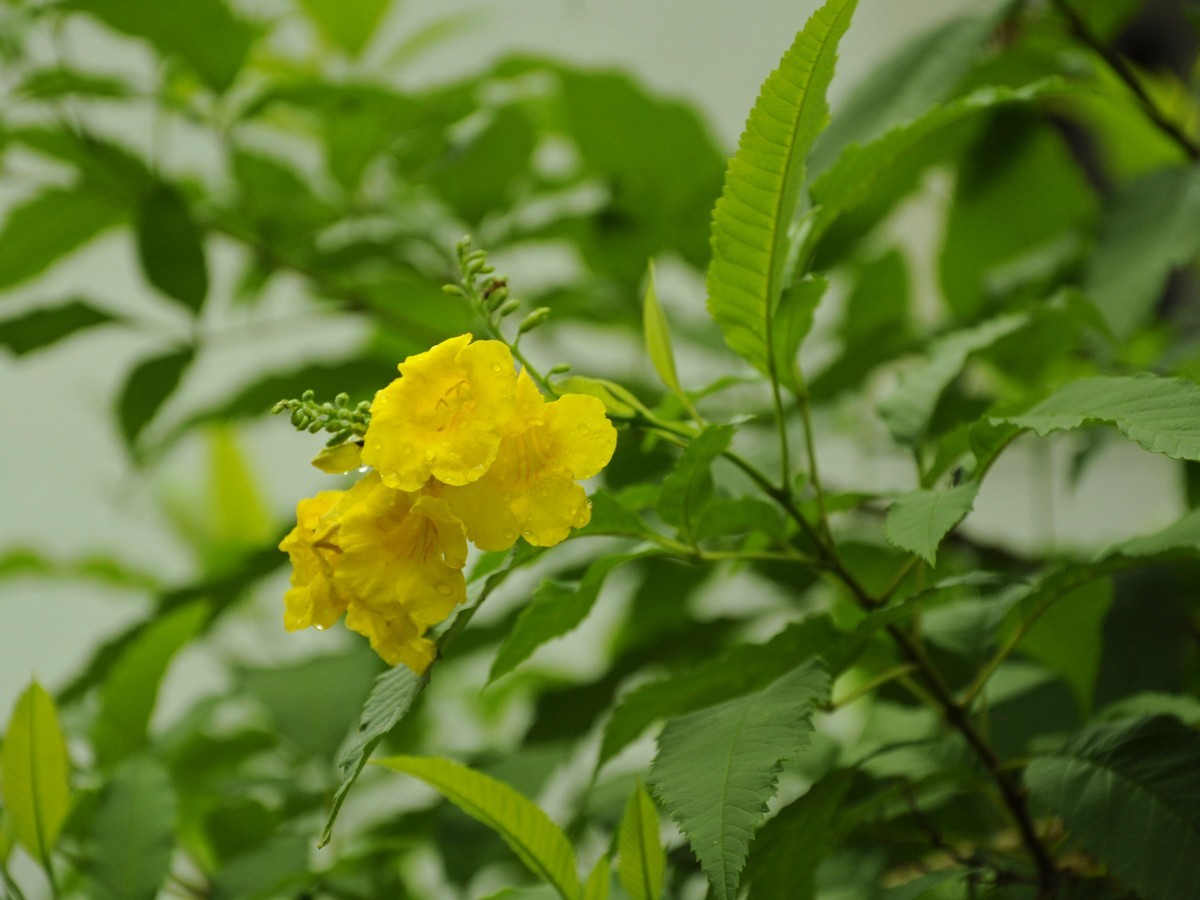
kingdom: Plantae
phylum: Tracheophyta
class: Magnoliopsida
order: Lamiales
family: Bignoniaceae
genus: Tecoma
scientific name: Tecoma stans
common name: Yellow trumpetbush
